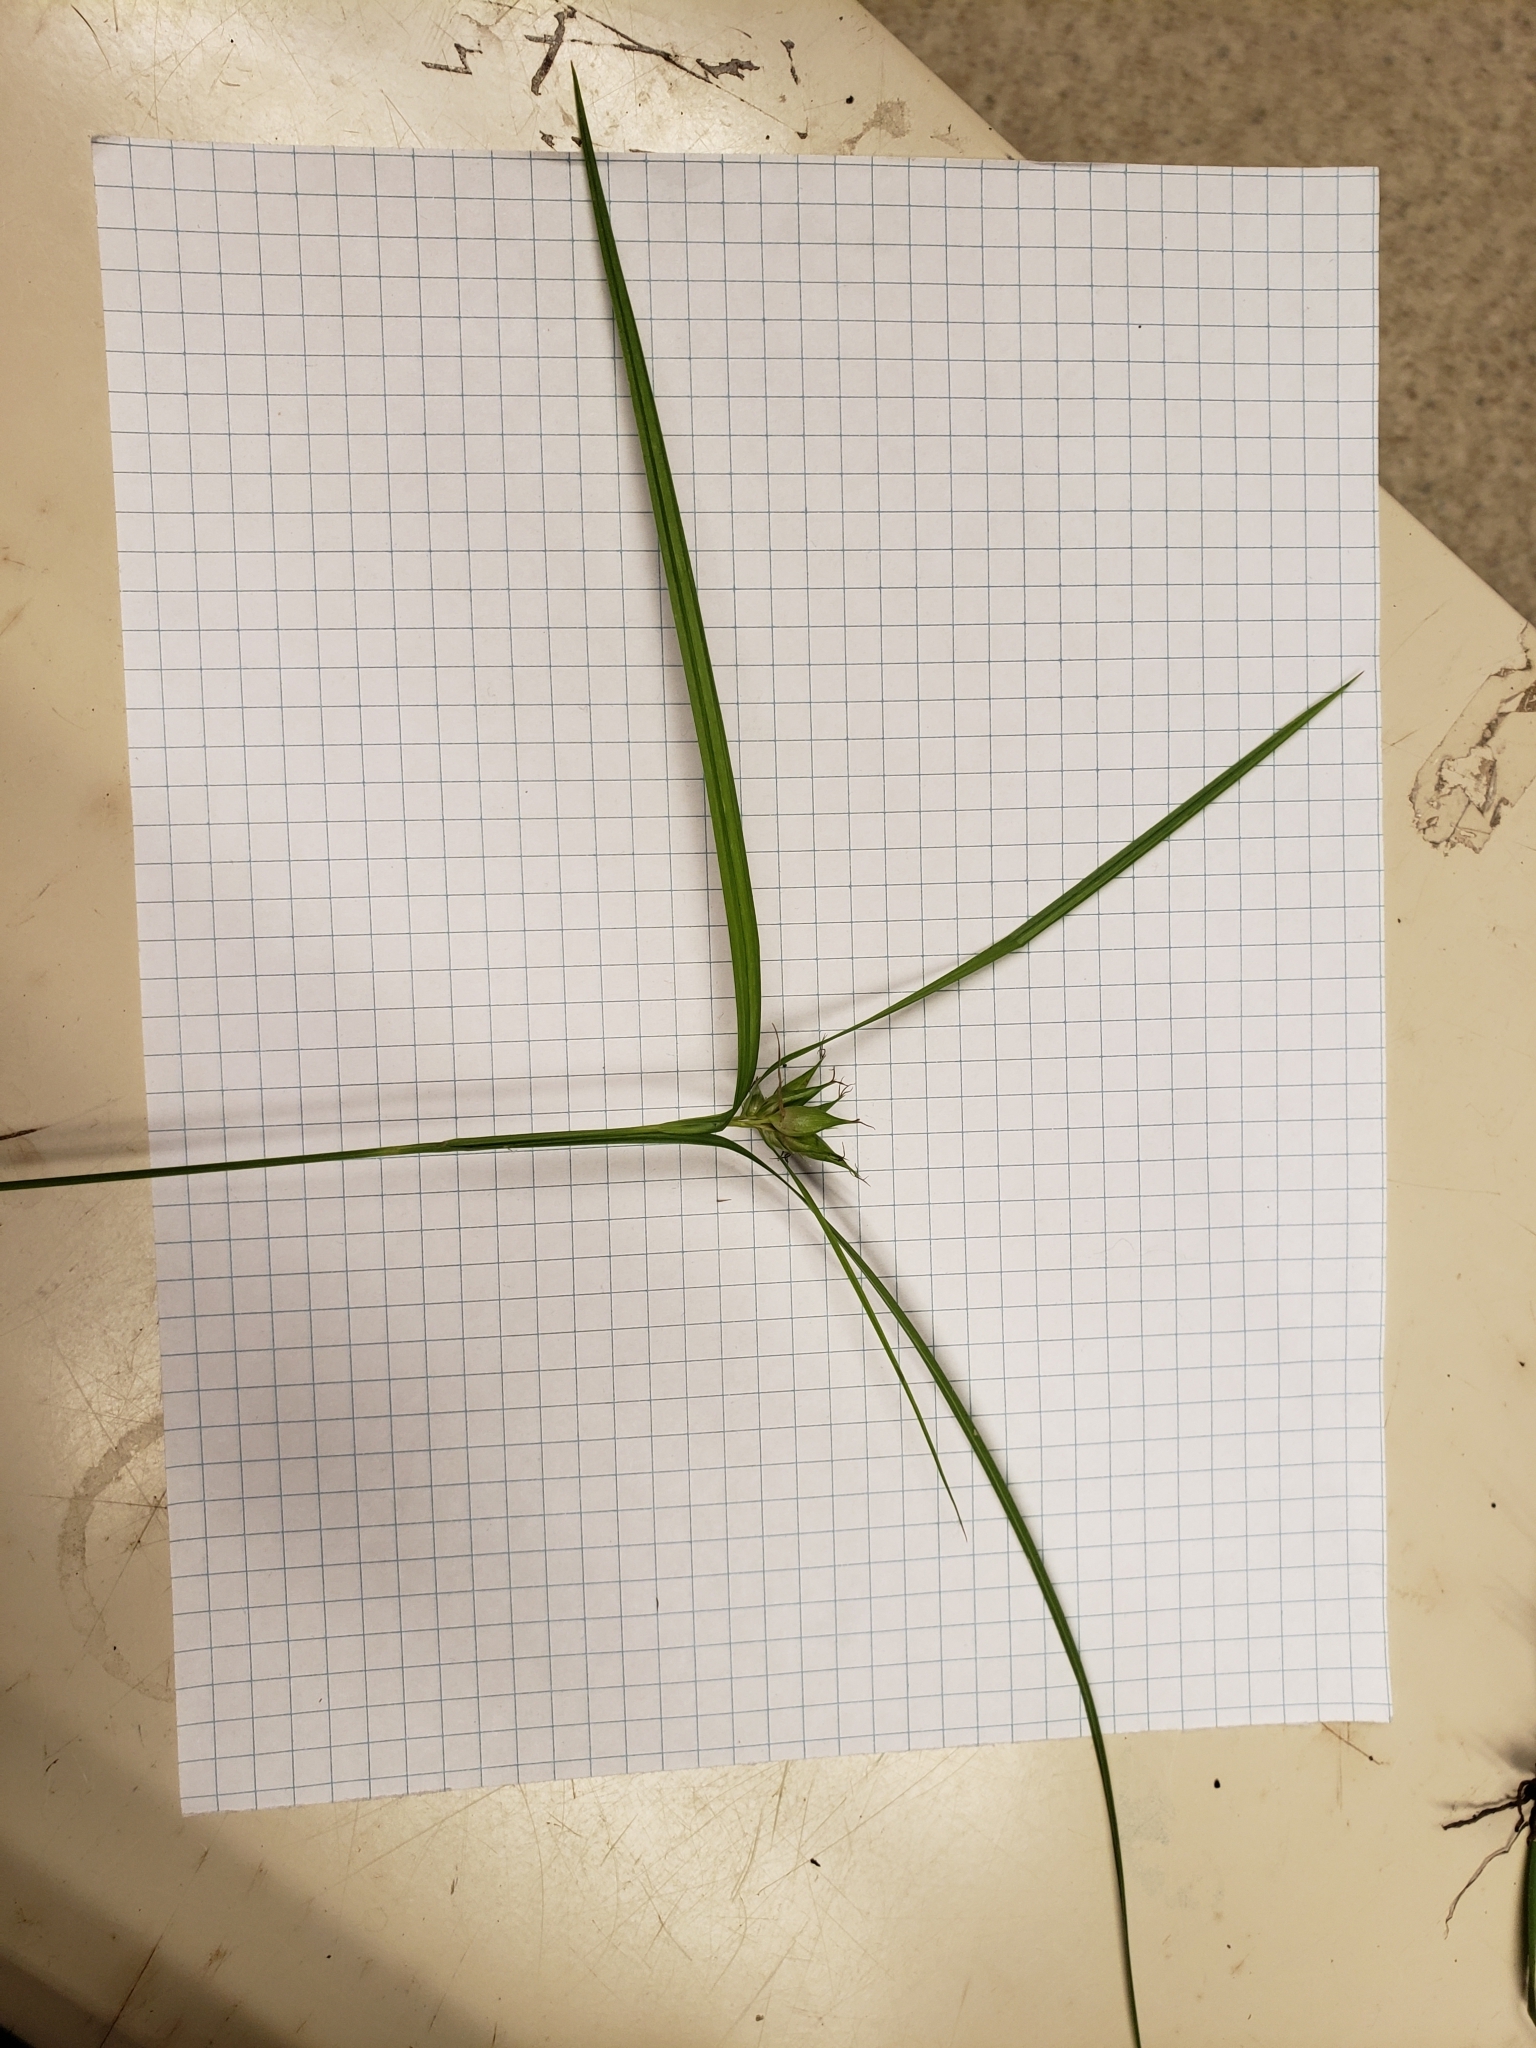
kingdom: Plantae
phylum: Tracheophyta
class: Liliopsida
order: Poales
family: Cyperaceae
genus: Carex
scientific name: Carex intumescens
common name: Greater bladder sedge
